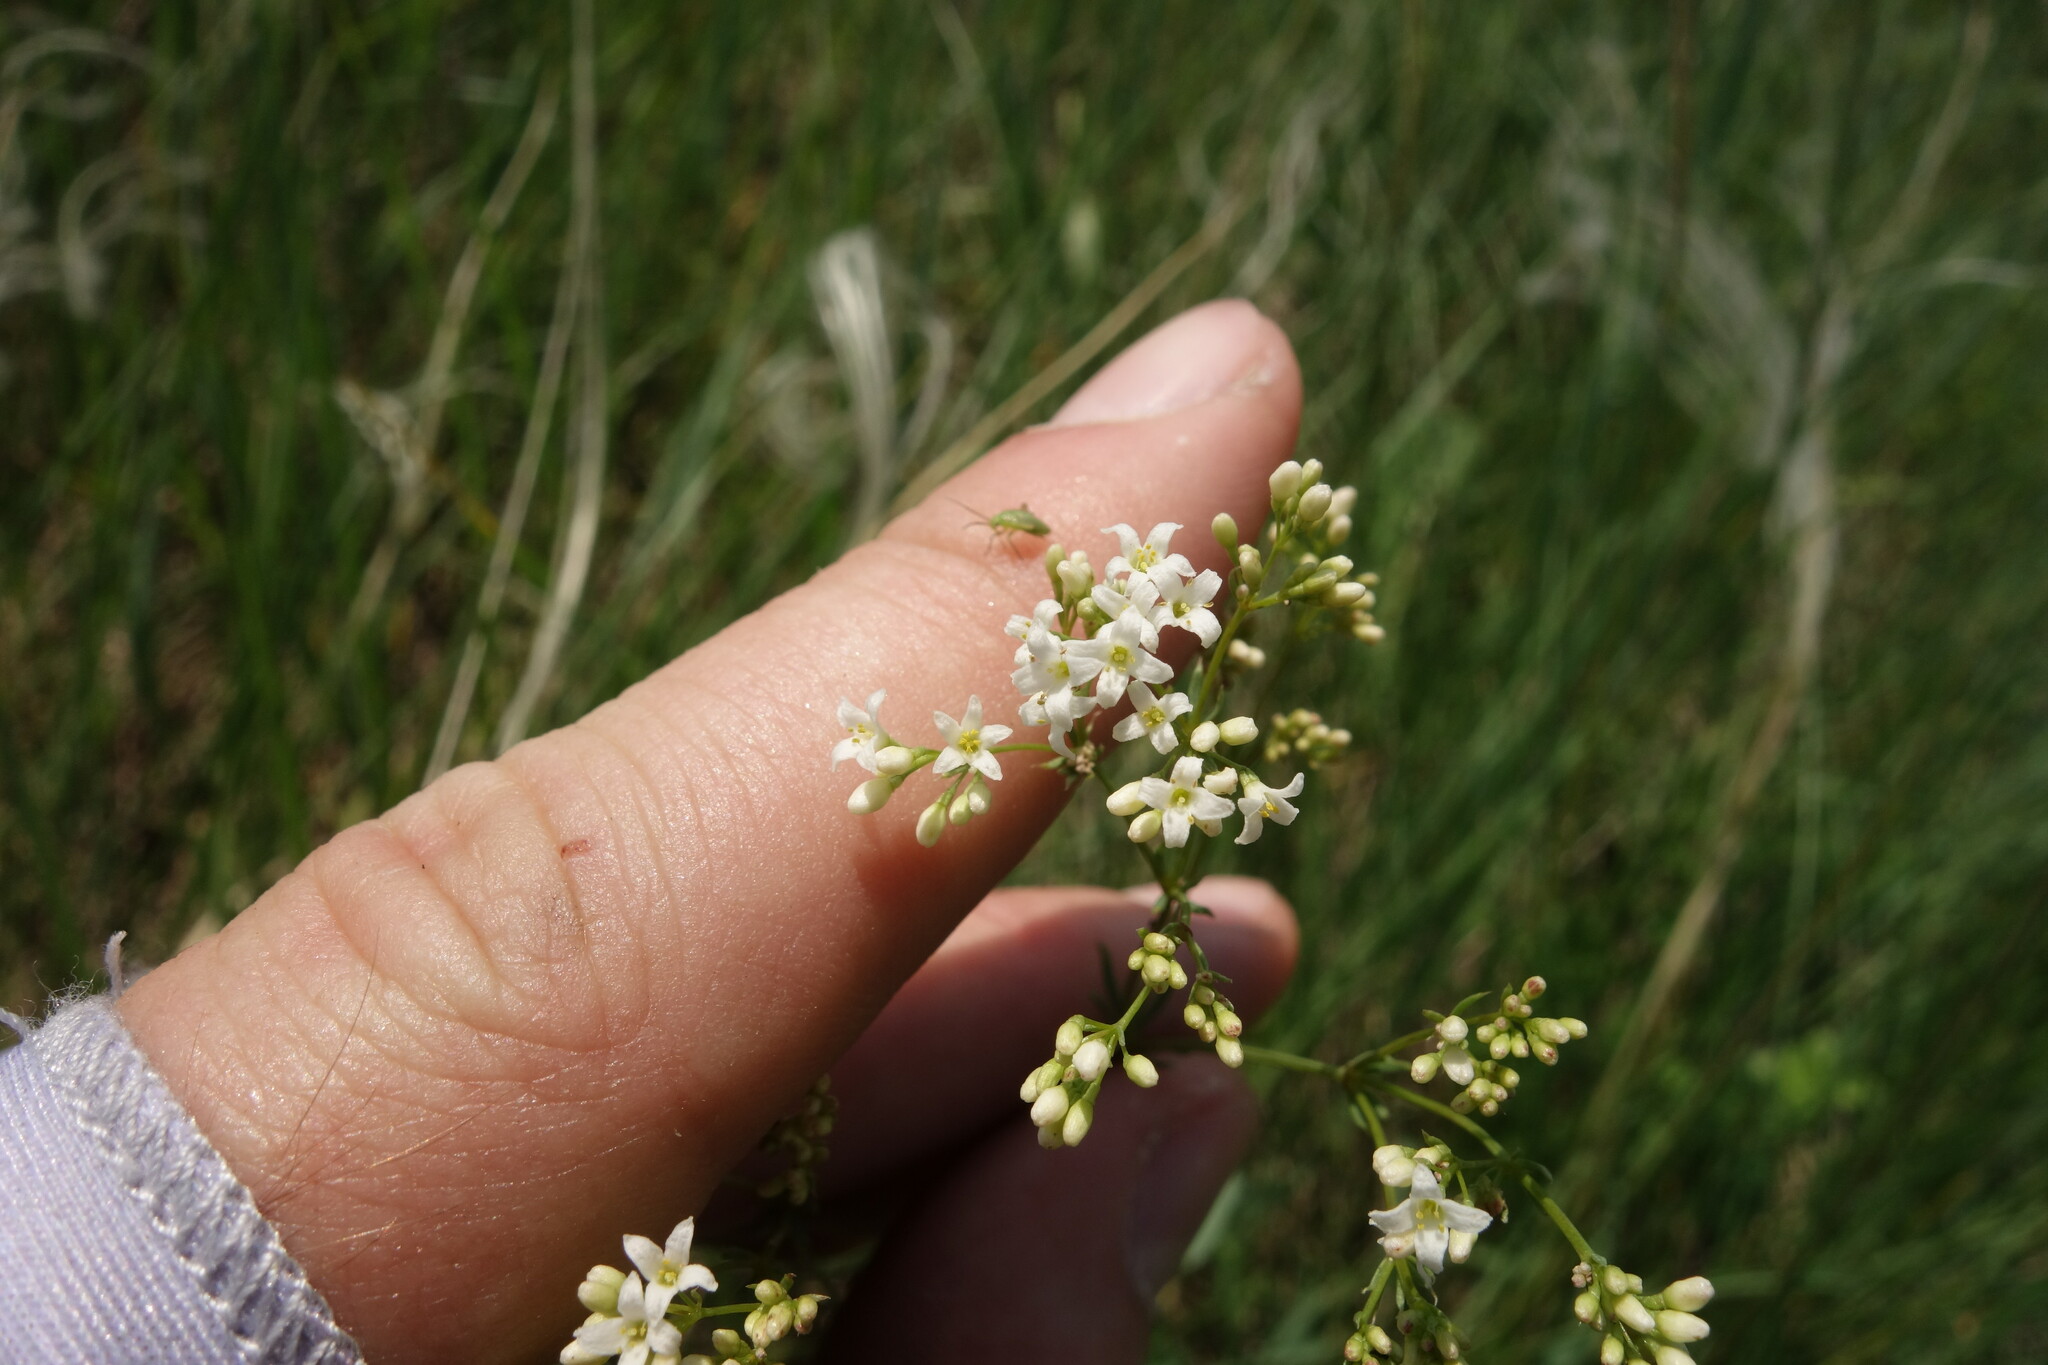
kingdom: Plantae
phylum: Tracheophyta
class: Magnoliopsida
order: Gentianales
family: Rubiaceae
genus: Galium
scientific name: Galium octonarium
